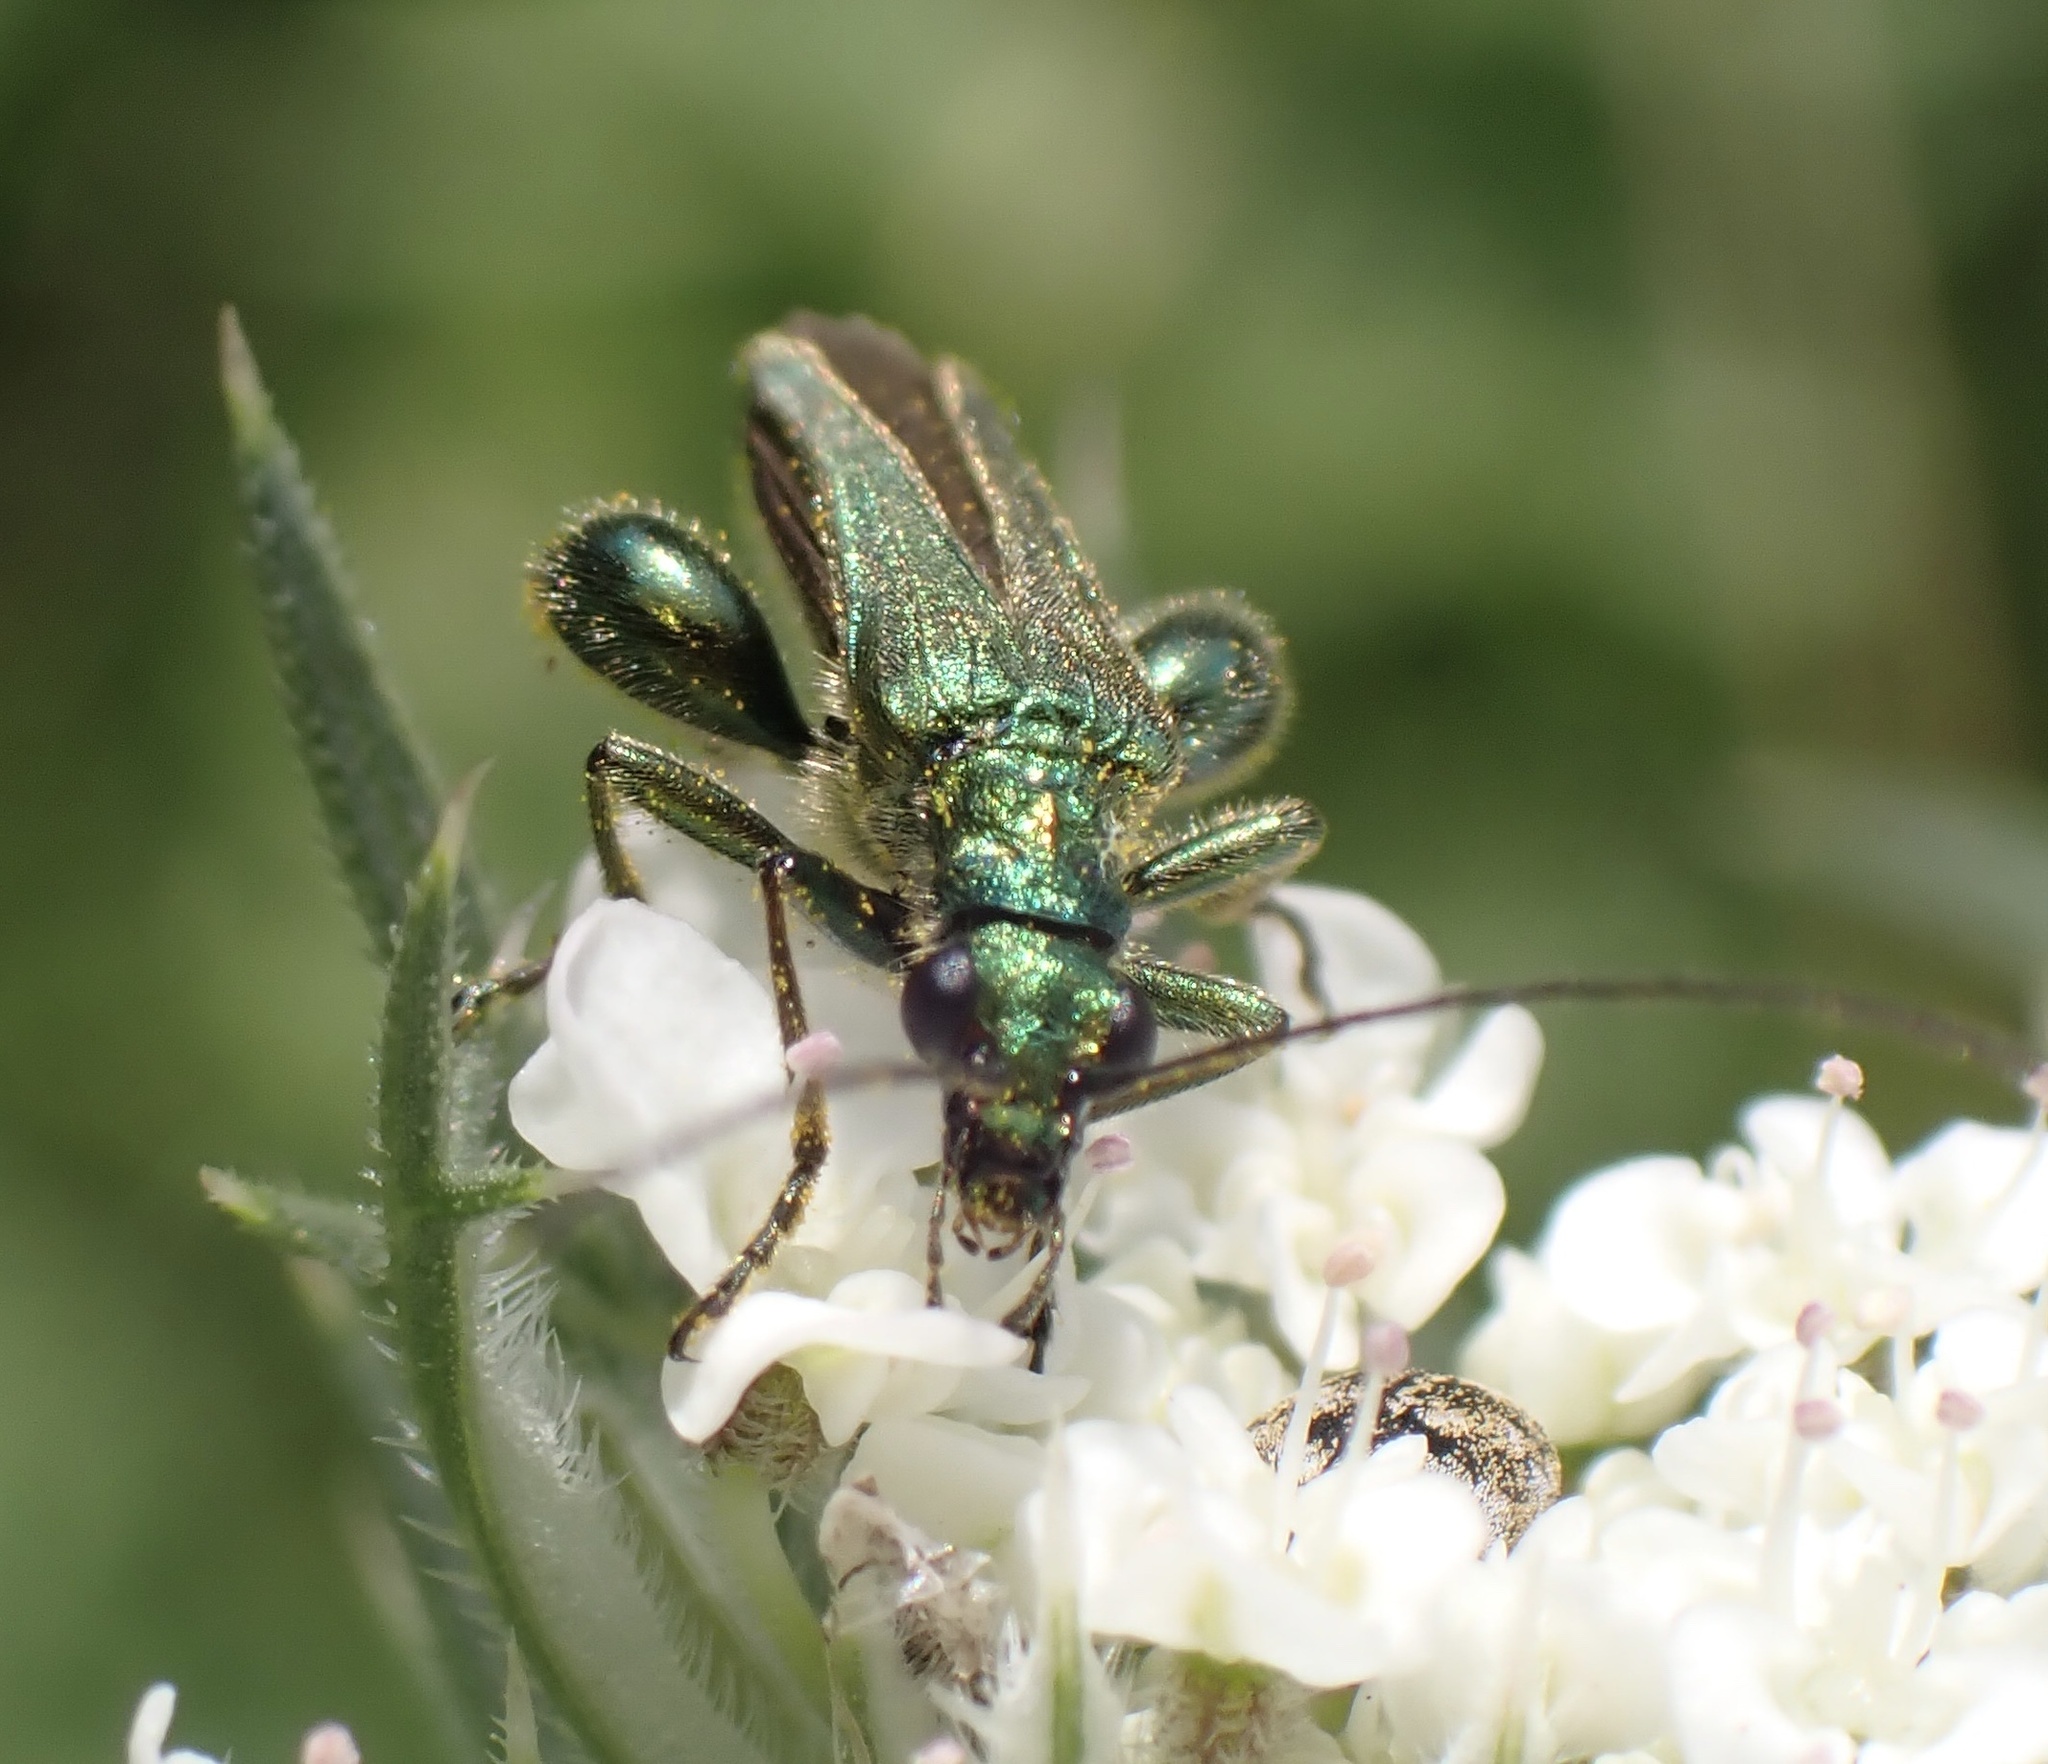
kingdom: Animalia
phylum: Arthropoda
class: Insecta
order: Coleoptera
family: Oedemeridae
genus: Oedemera
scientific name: Oedemera nobilis
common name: Swollen-thighed beetle
